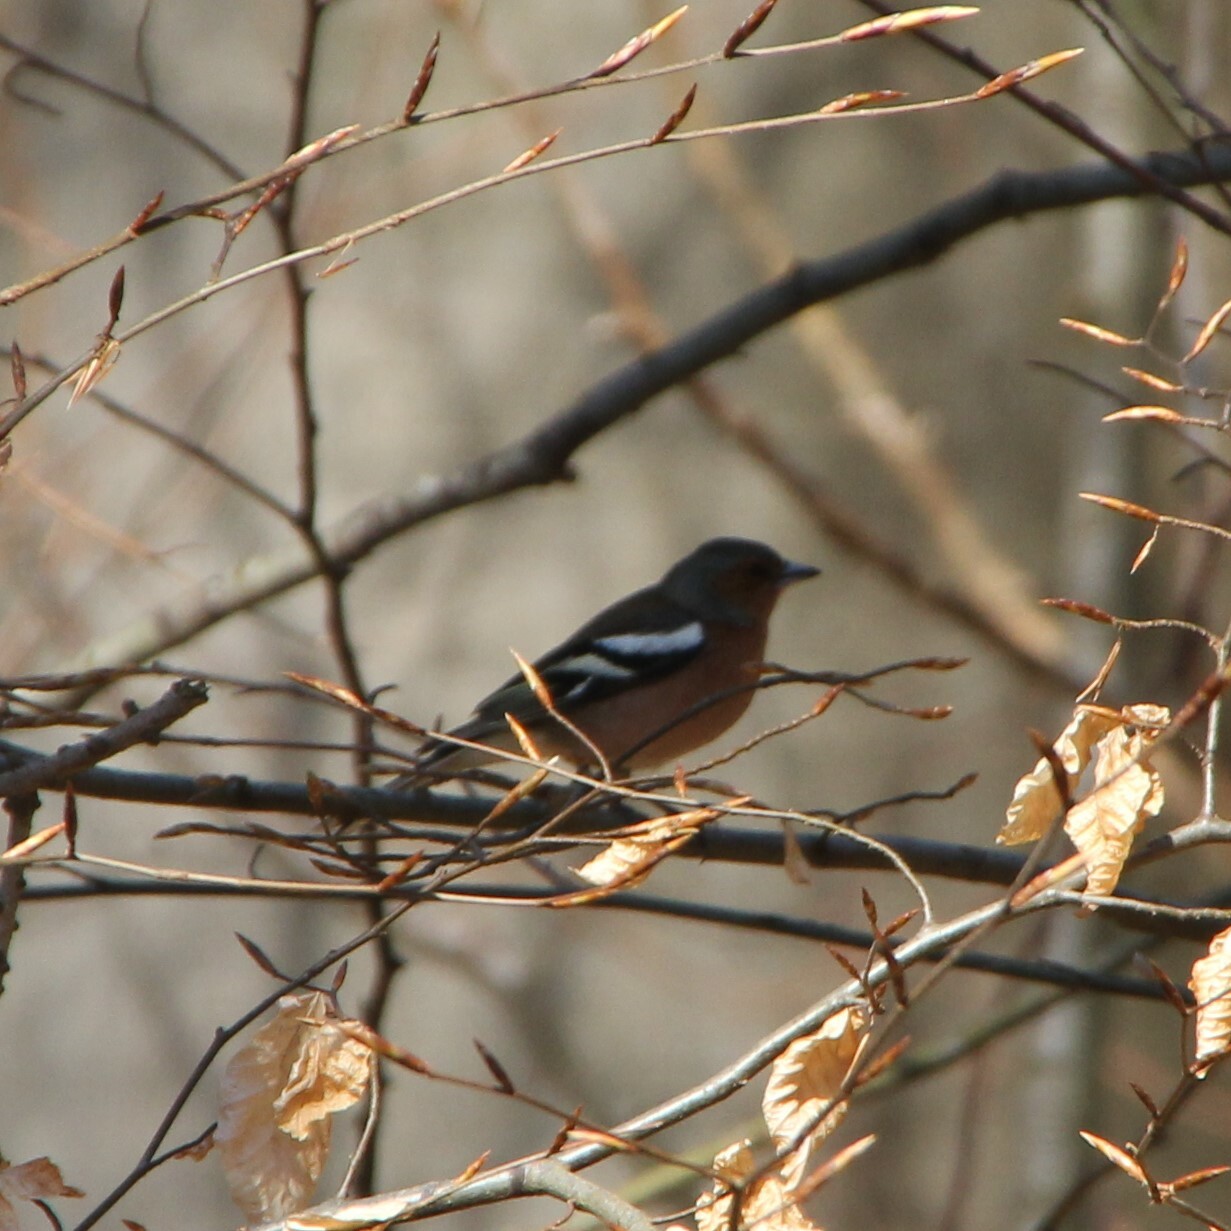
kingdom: Animalia
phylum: Chordata
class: Aves
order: Passeriformes
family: Fringillidae
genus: Fringilla
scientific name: Fringilla coelebs
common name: Common chaffinch
